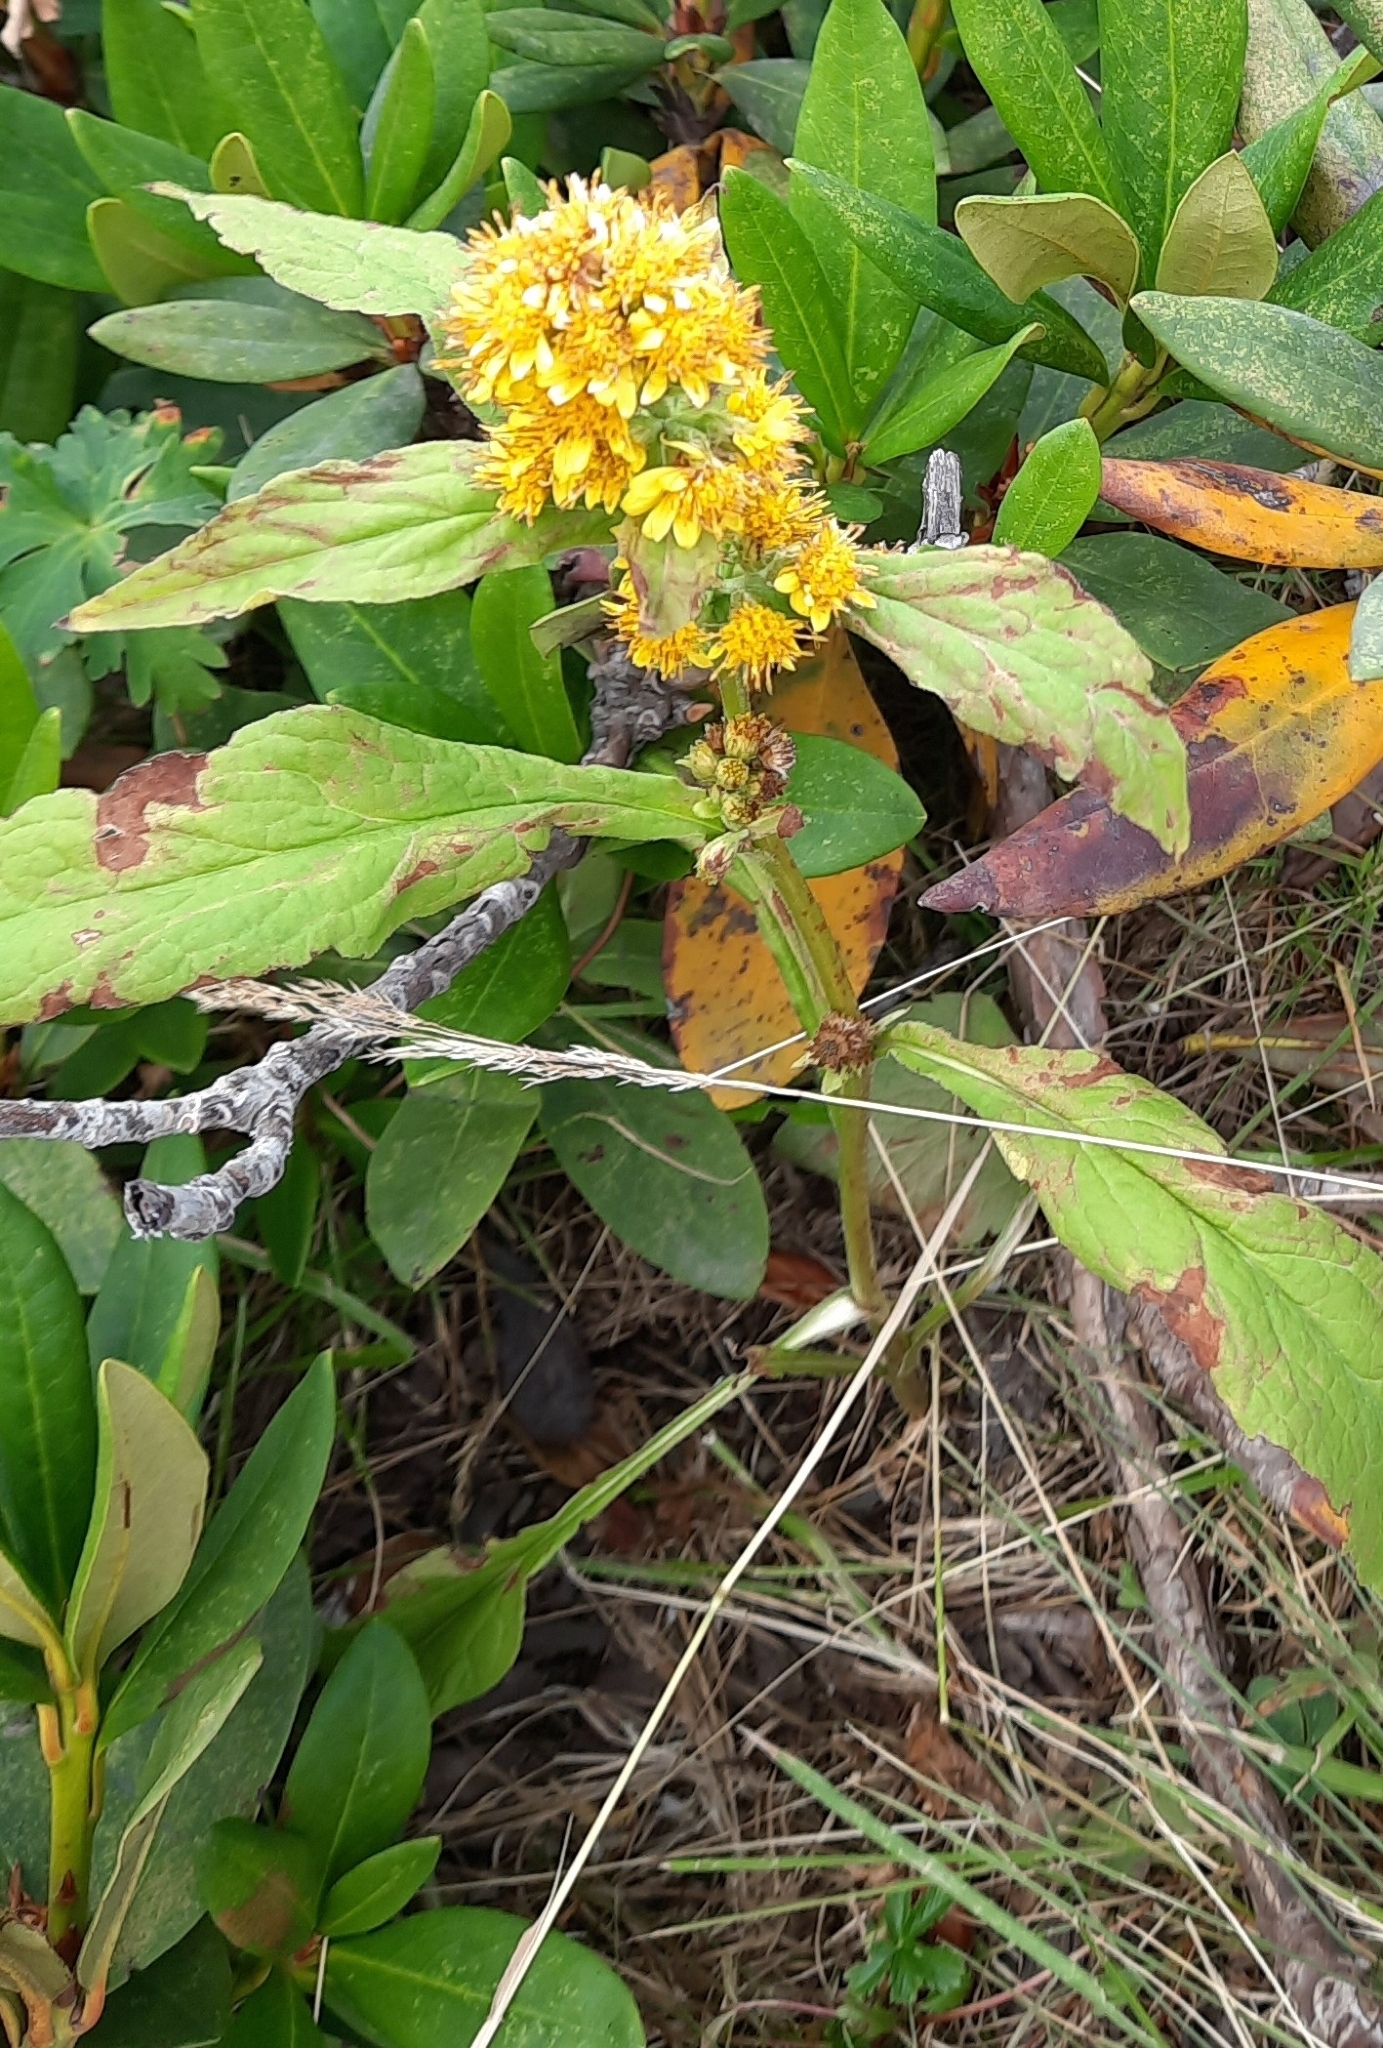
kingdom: Plantae
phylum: Tracheophyta
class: Magnoliopsida
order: Asterales
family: Asteraceae
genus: Solidago
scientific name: Solidago virgaurea
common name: Goldenrod
